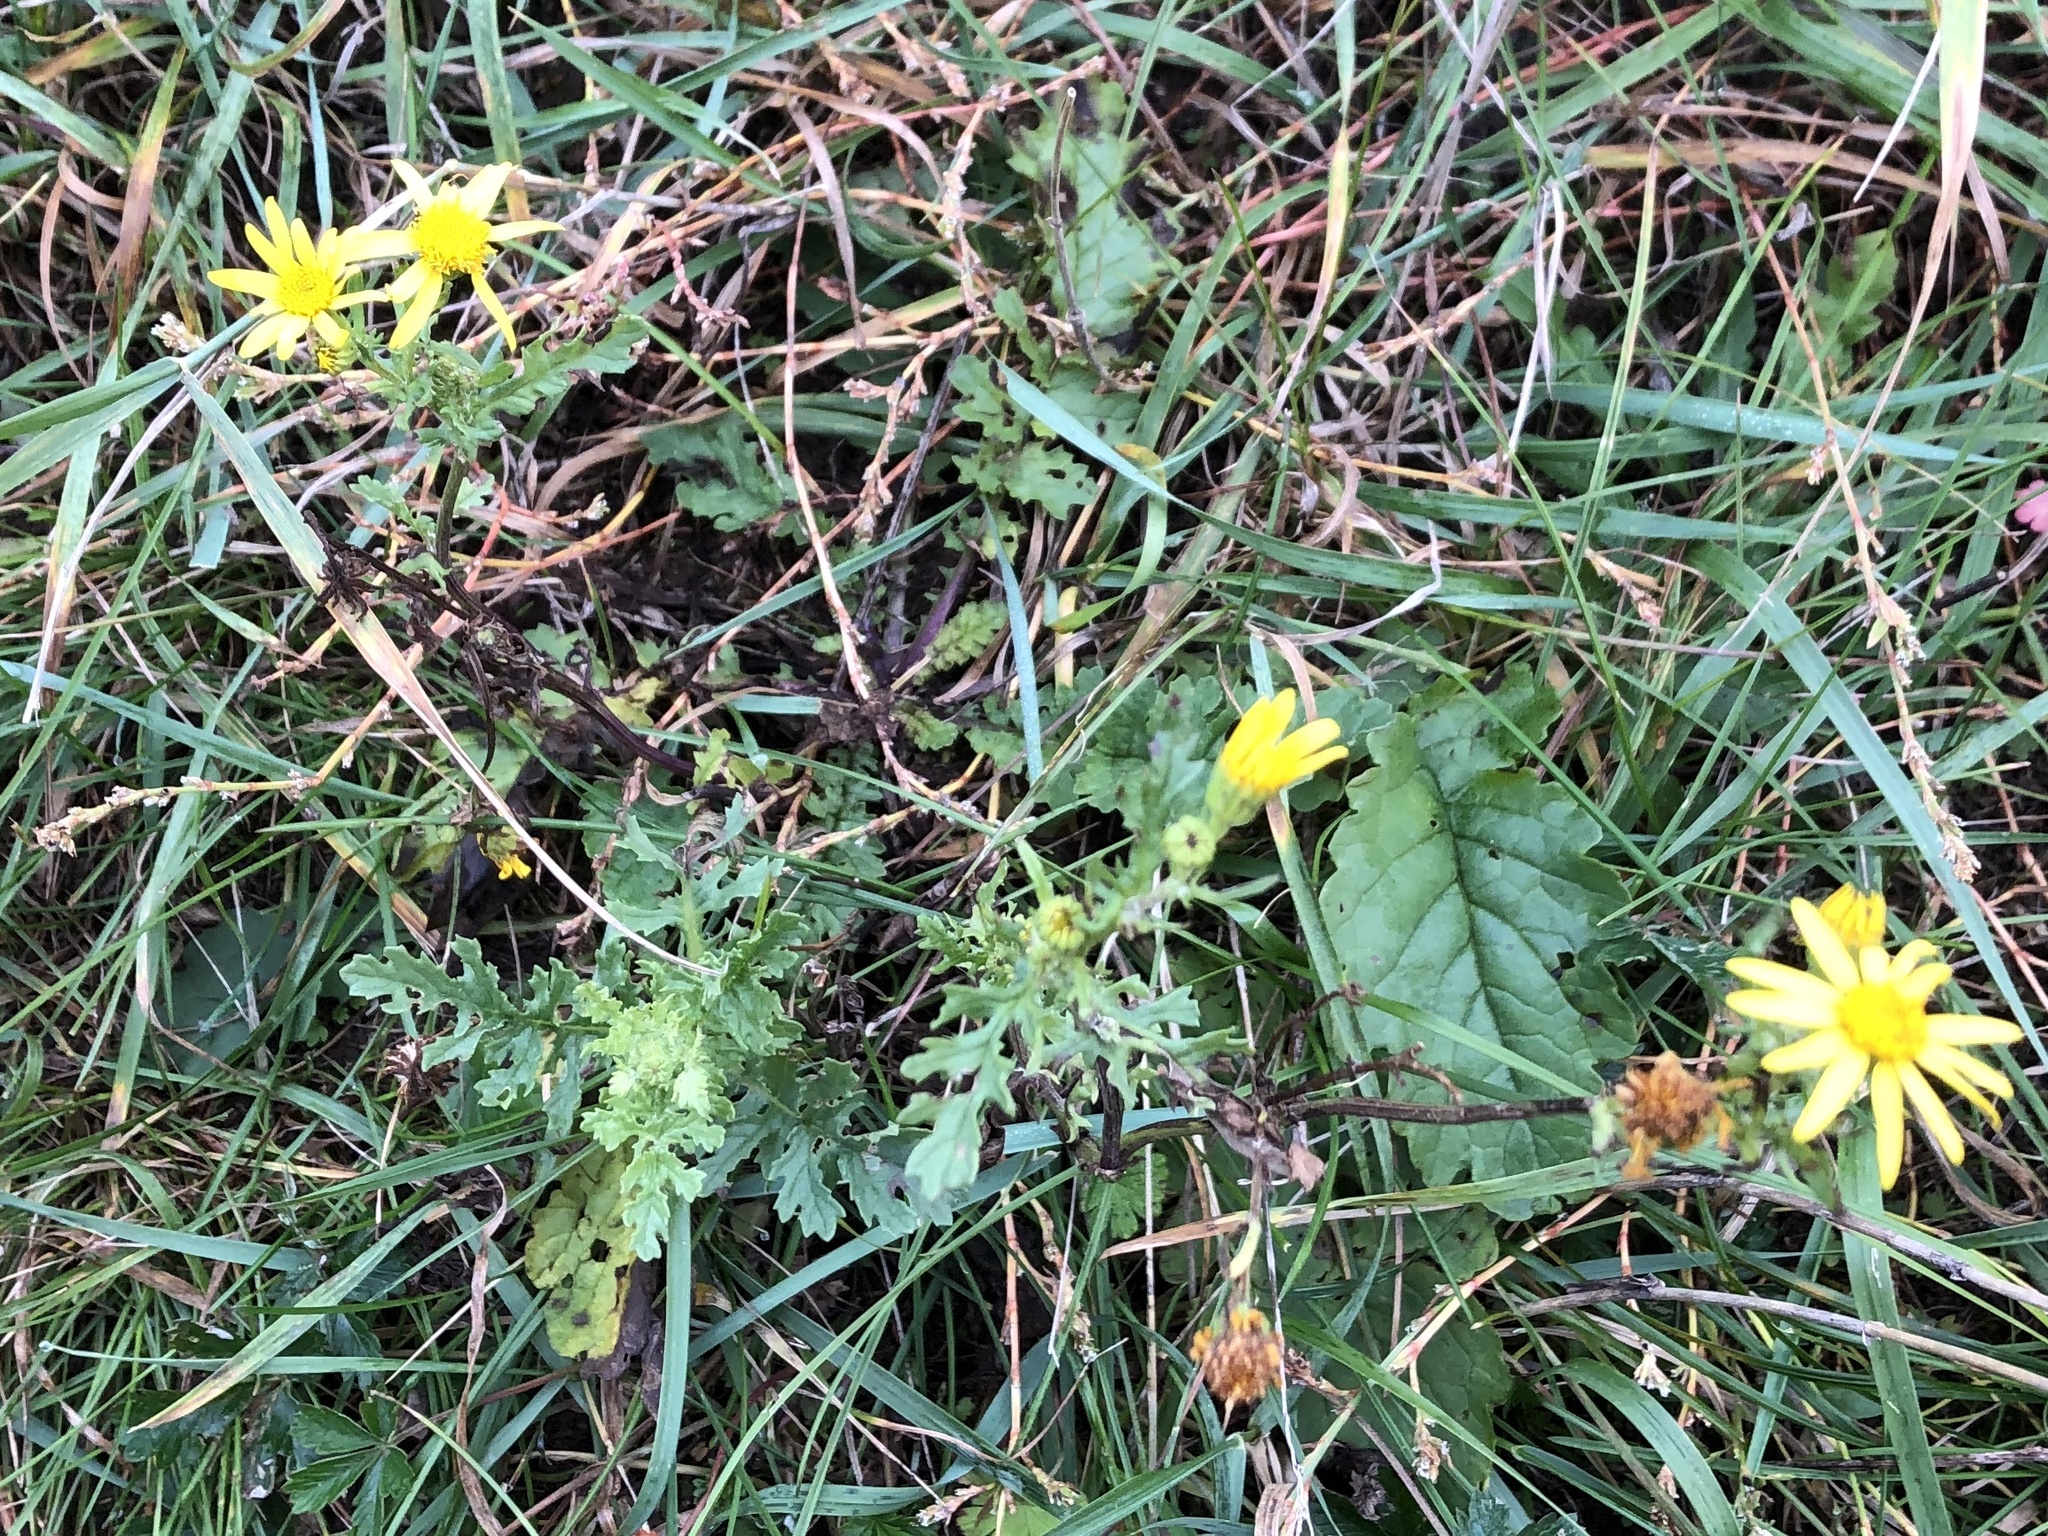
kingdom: Plantae
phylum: Tracheophyta
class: Magnoliopsida
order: Asterales
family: Asteraceae
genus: Jacobaea
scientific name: Jacobaea vulgaris
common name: Stinking willie
